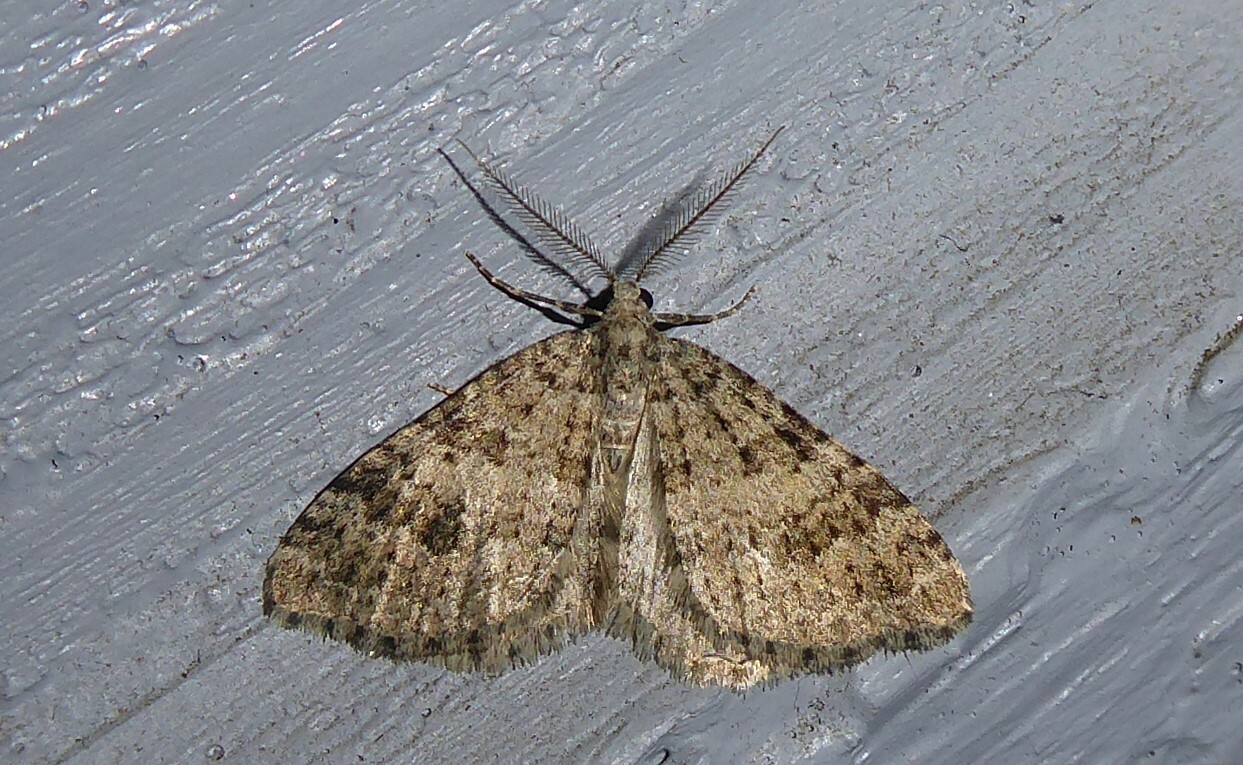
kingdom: Animalia
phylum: Arthropoda
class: Insecta
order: Lepidoptera
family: Geometridae
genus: Helastia
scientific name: Helastia corcularia
